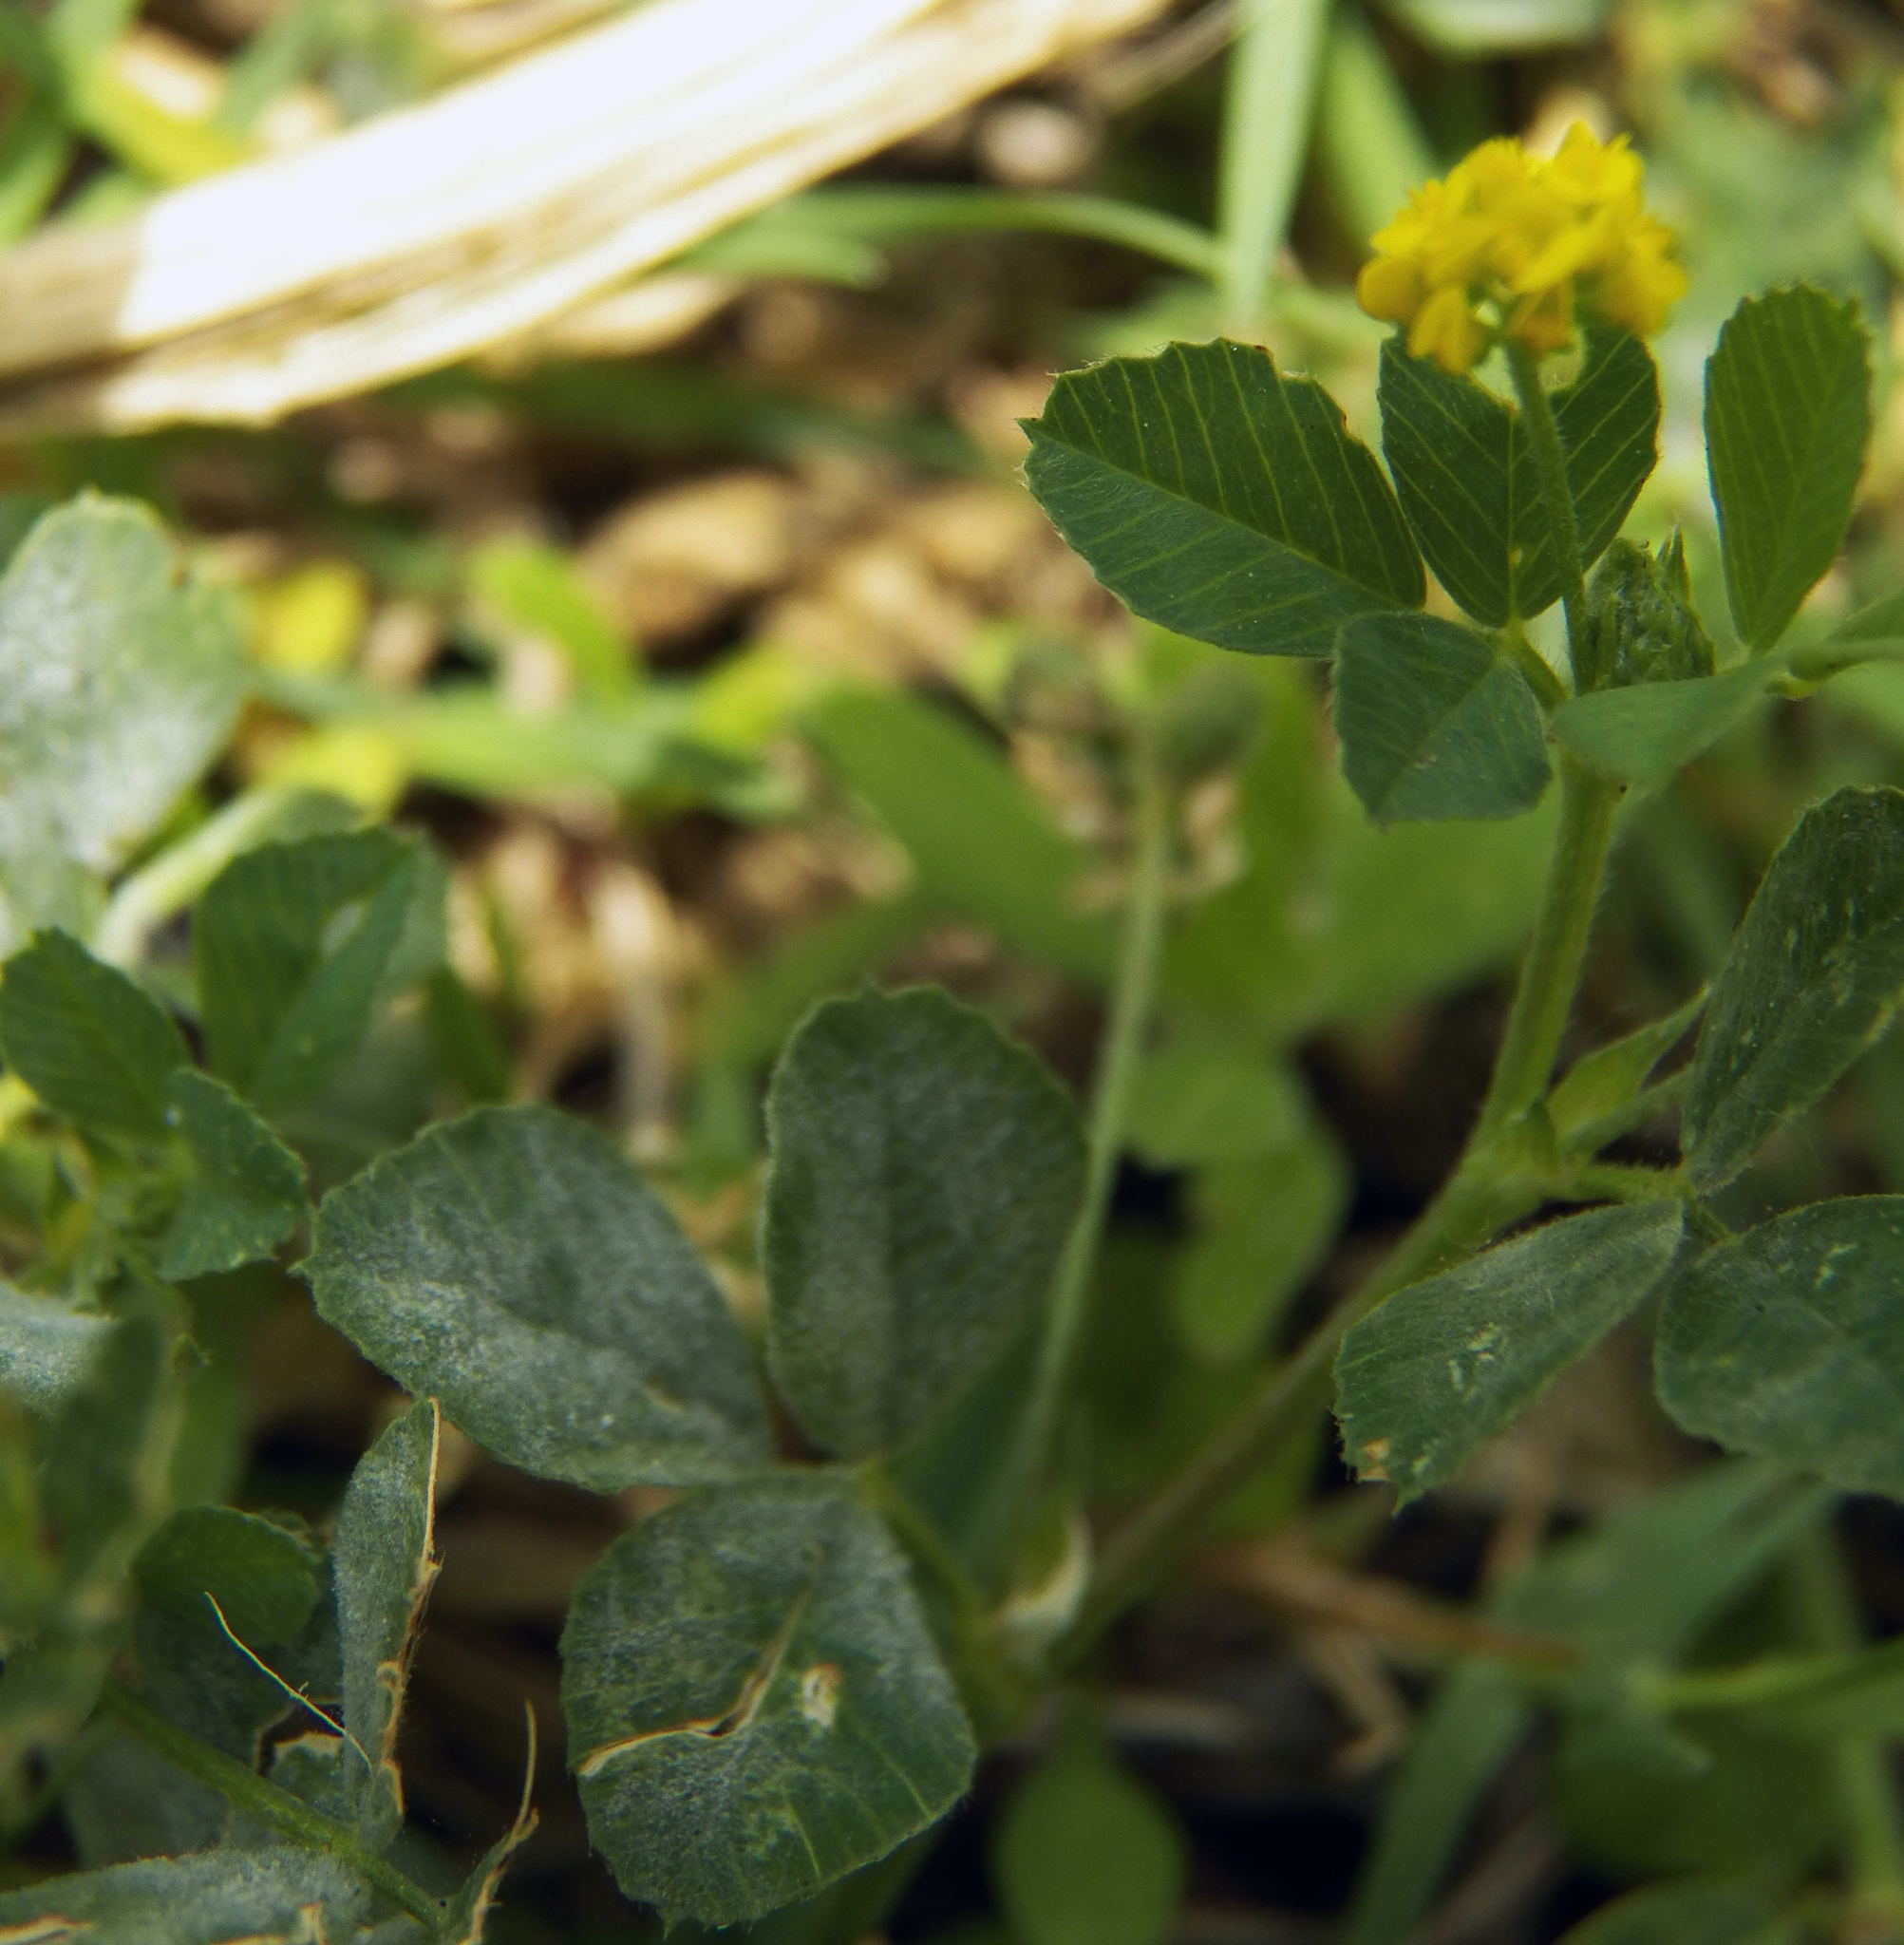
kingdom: Plantae
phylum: Tracheophyta
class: Magnoliopsida
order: Fabales
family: Fabaceae
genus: Medicago
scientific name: Medicago lupulina
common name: Black medick
